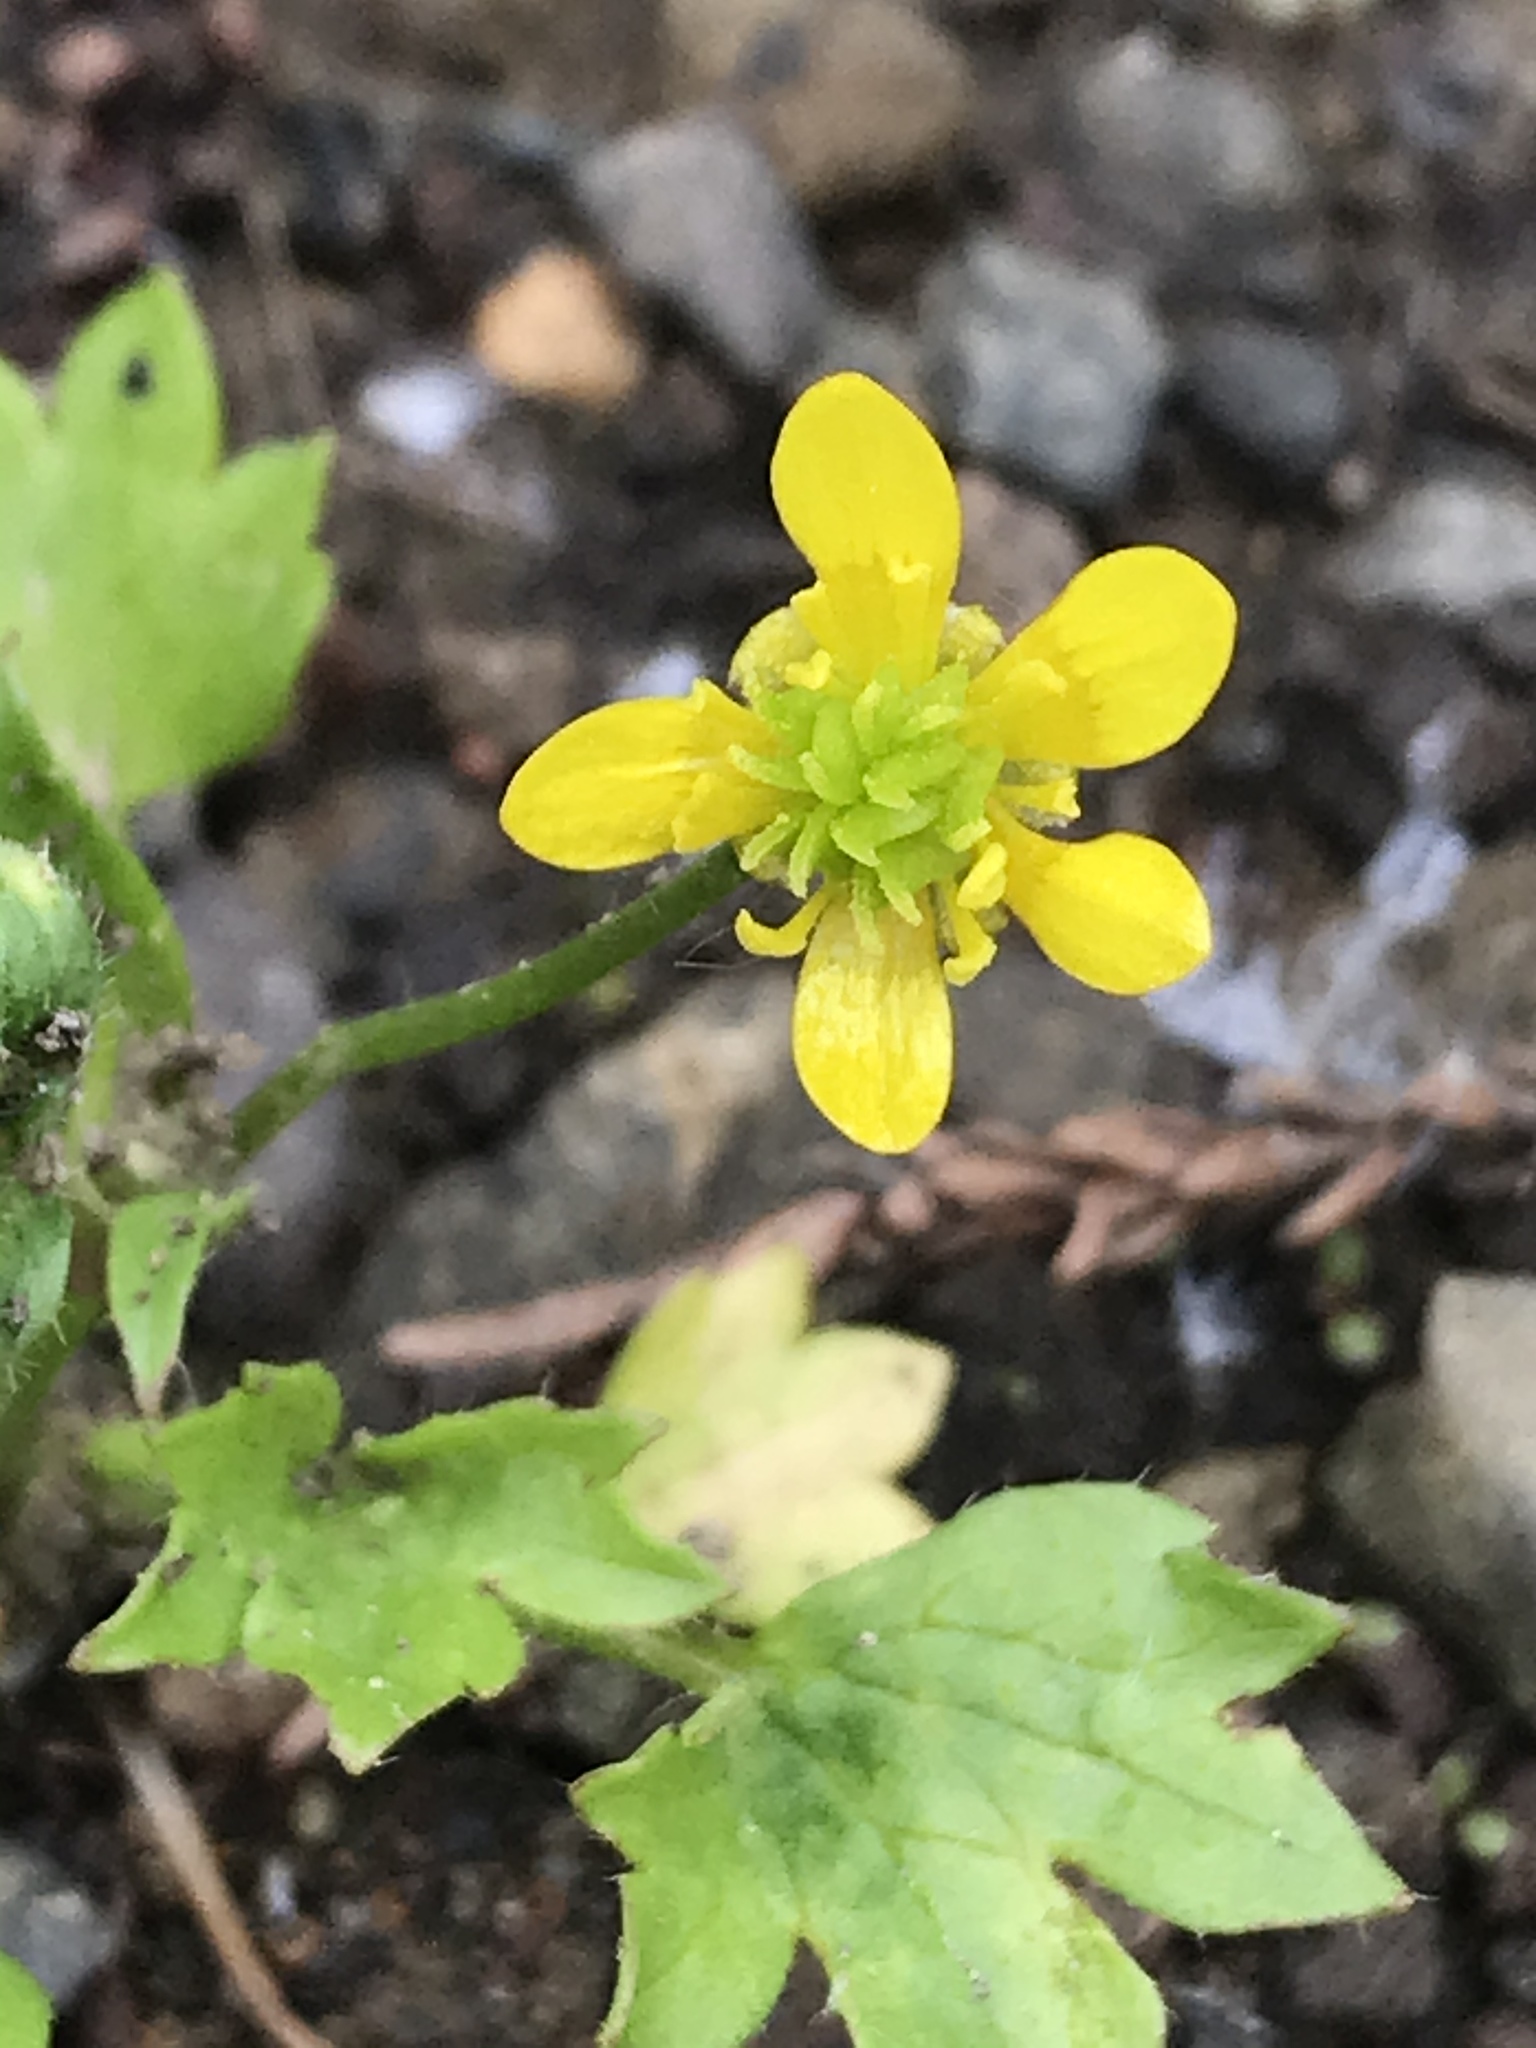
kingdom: Plantae
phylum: Tracheophyta
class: Magnoliopsida
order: Ranunculales
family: Ranunculaceae
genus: Ranunculus
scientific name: Ranunculus muricatus
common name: Rough-fruited buttercup
